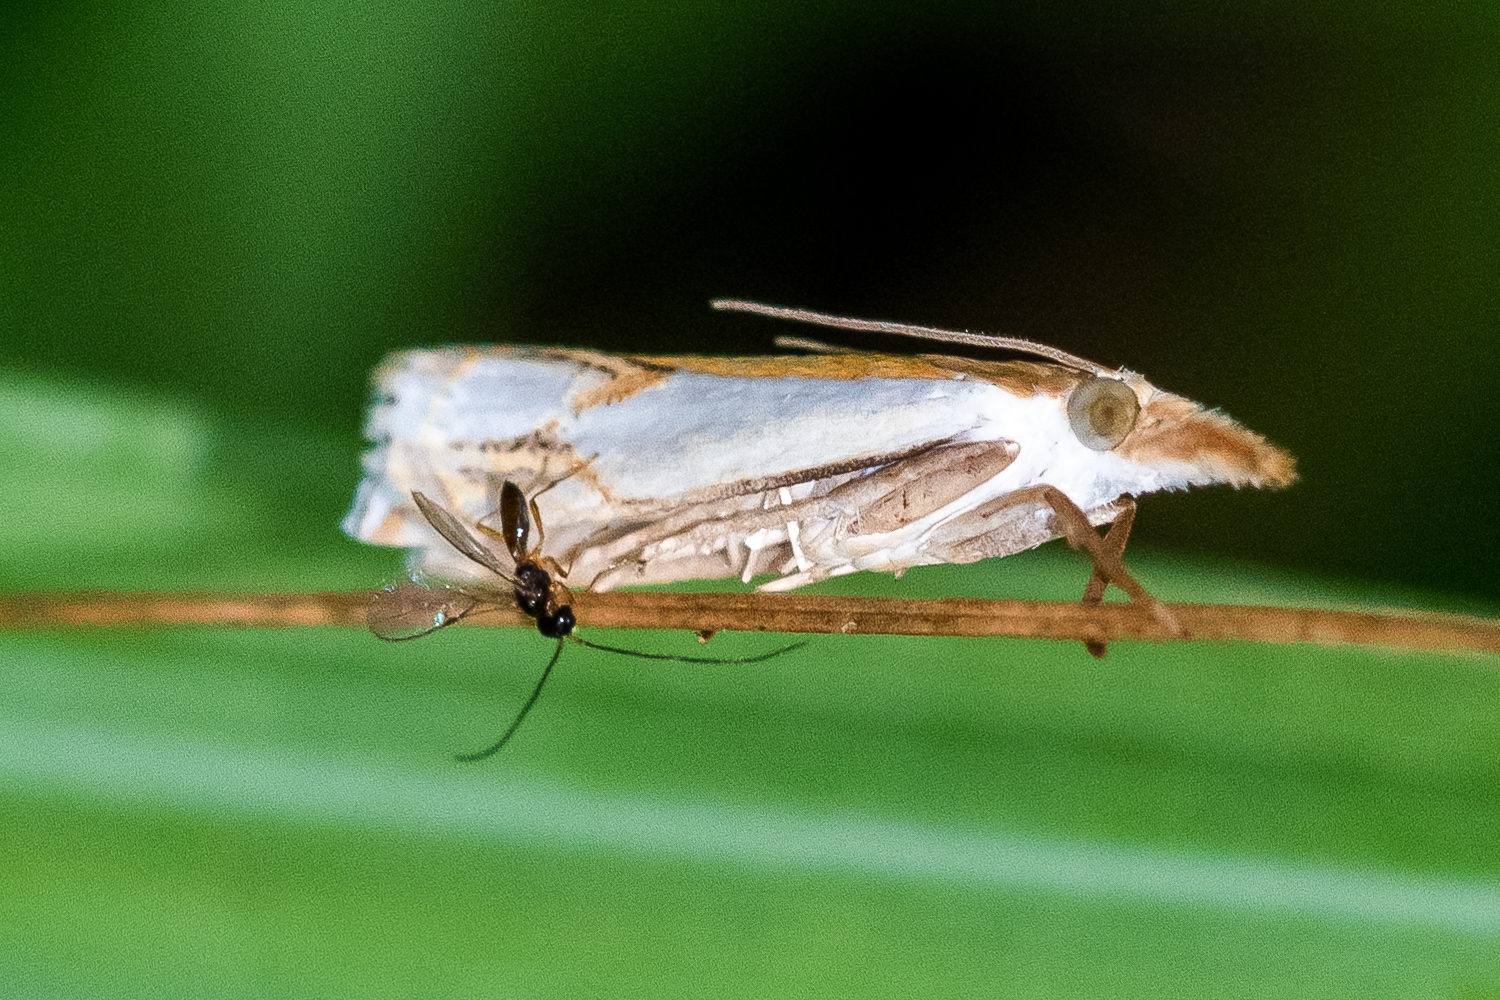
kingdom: Animalia
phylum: Arthropoda
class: Insecta
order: Lepidoptera
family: Crambidae
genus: Crambus
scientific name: Crambus agitatellus
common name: Double-banded grass-veneer
